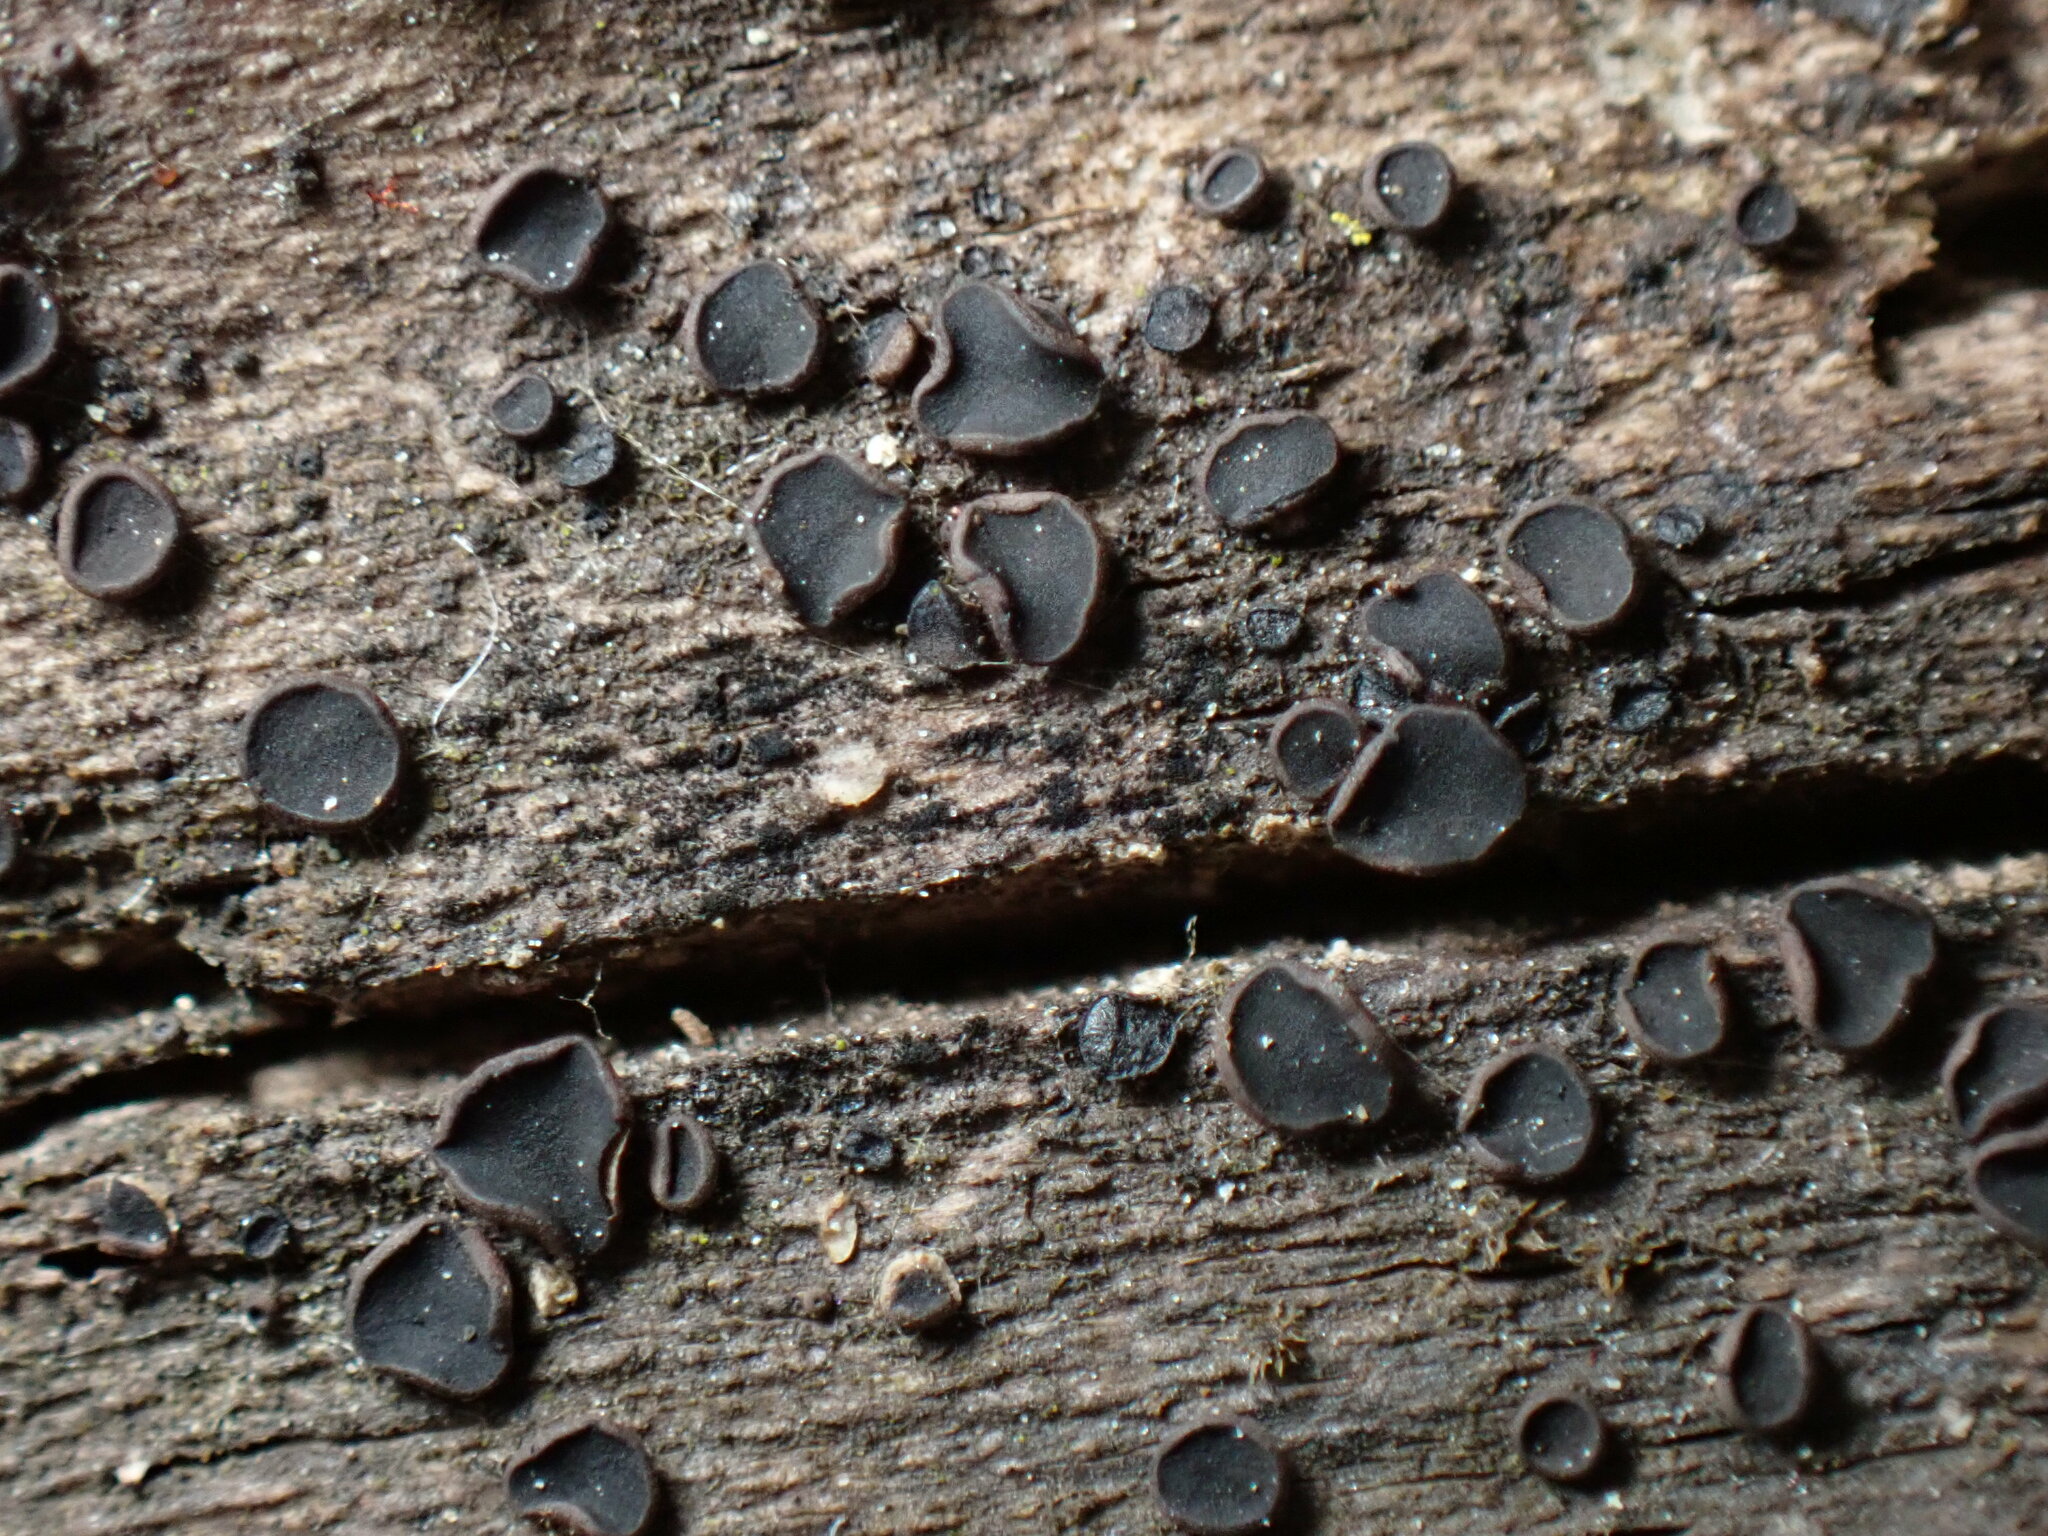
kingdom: Fungi
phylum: Ascomycota
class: Eurotiomycetes
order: Sclerococcales
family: Sclerococcaceae
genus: Sclerococcum
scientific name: Sclerococcum stygium
